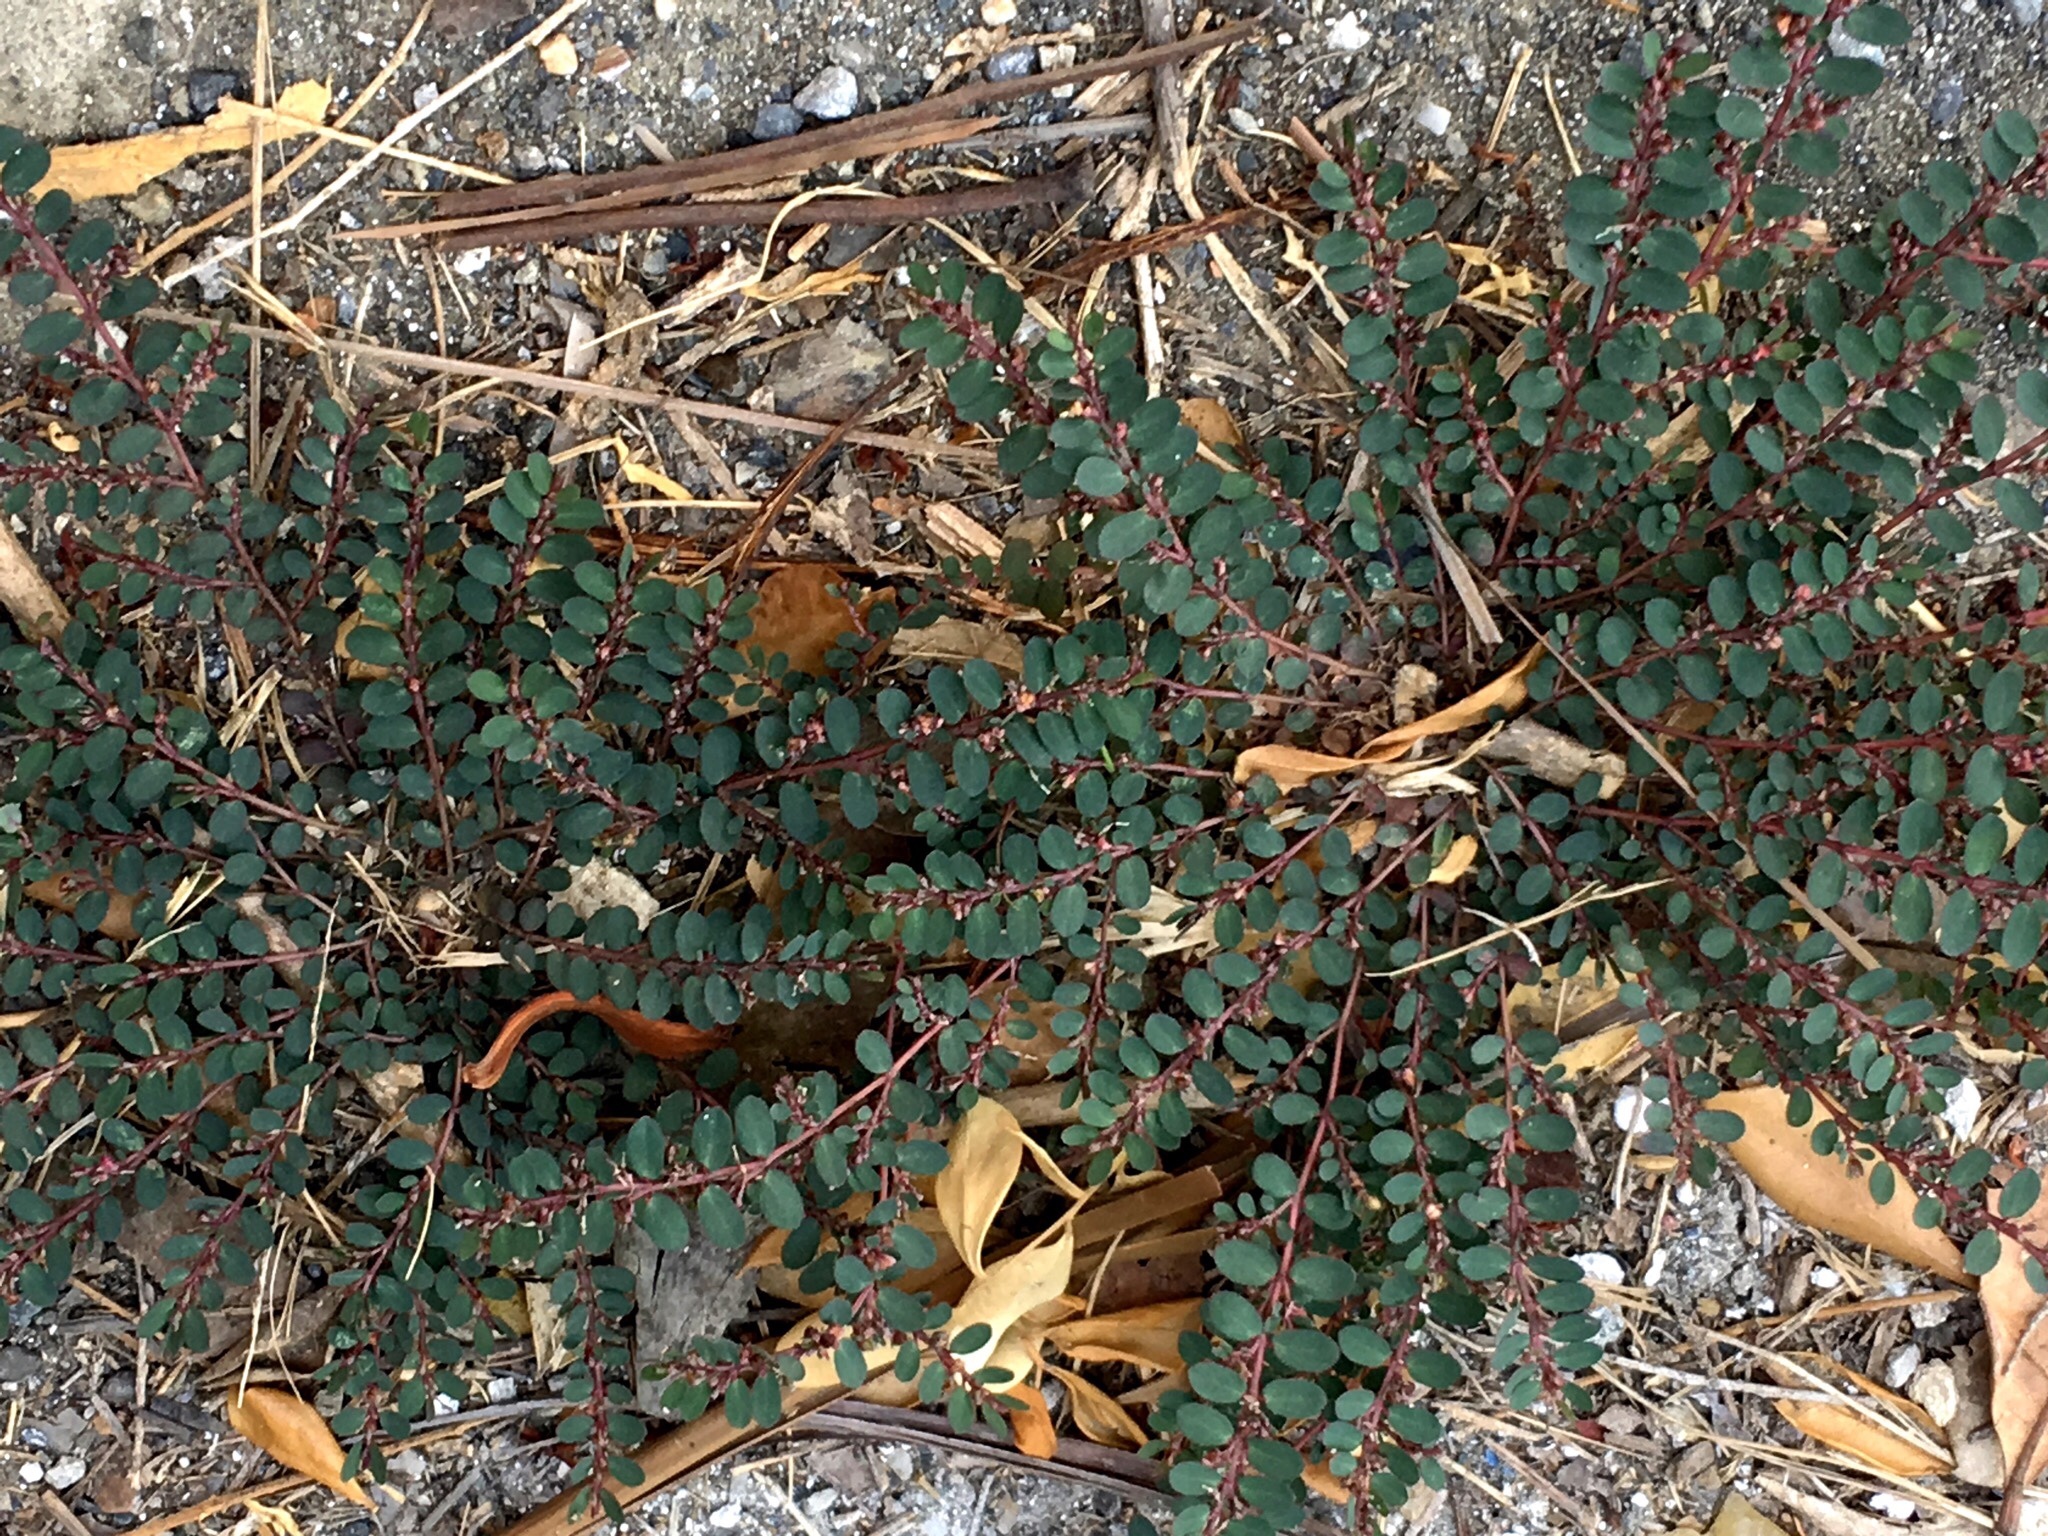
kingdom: Plantae
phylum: Tracheophyta
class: Magnoliopsida
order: Malpighiales
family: Euphorbiaceae
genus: Euphorbia
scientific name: Euphorbia prostrata
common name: Prostrate sandmat
